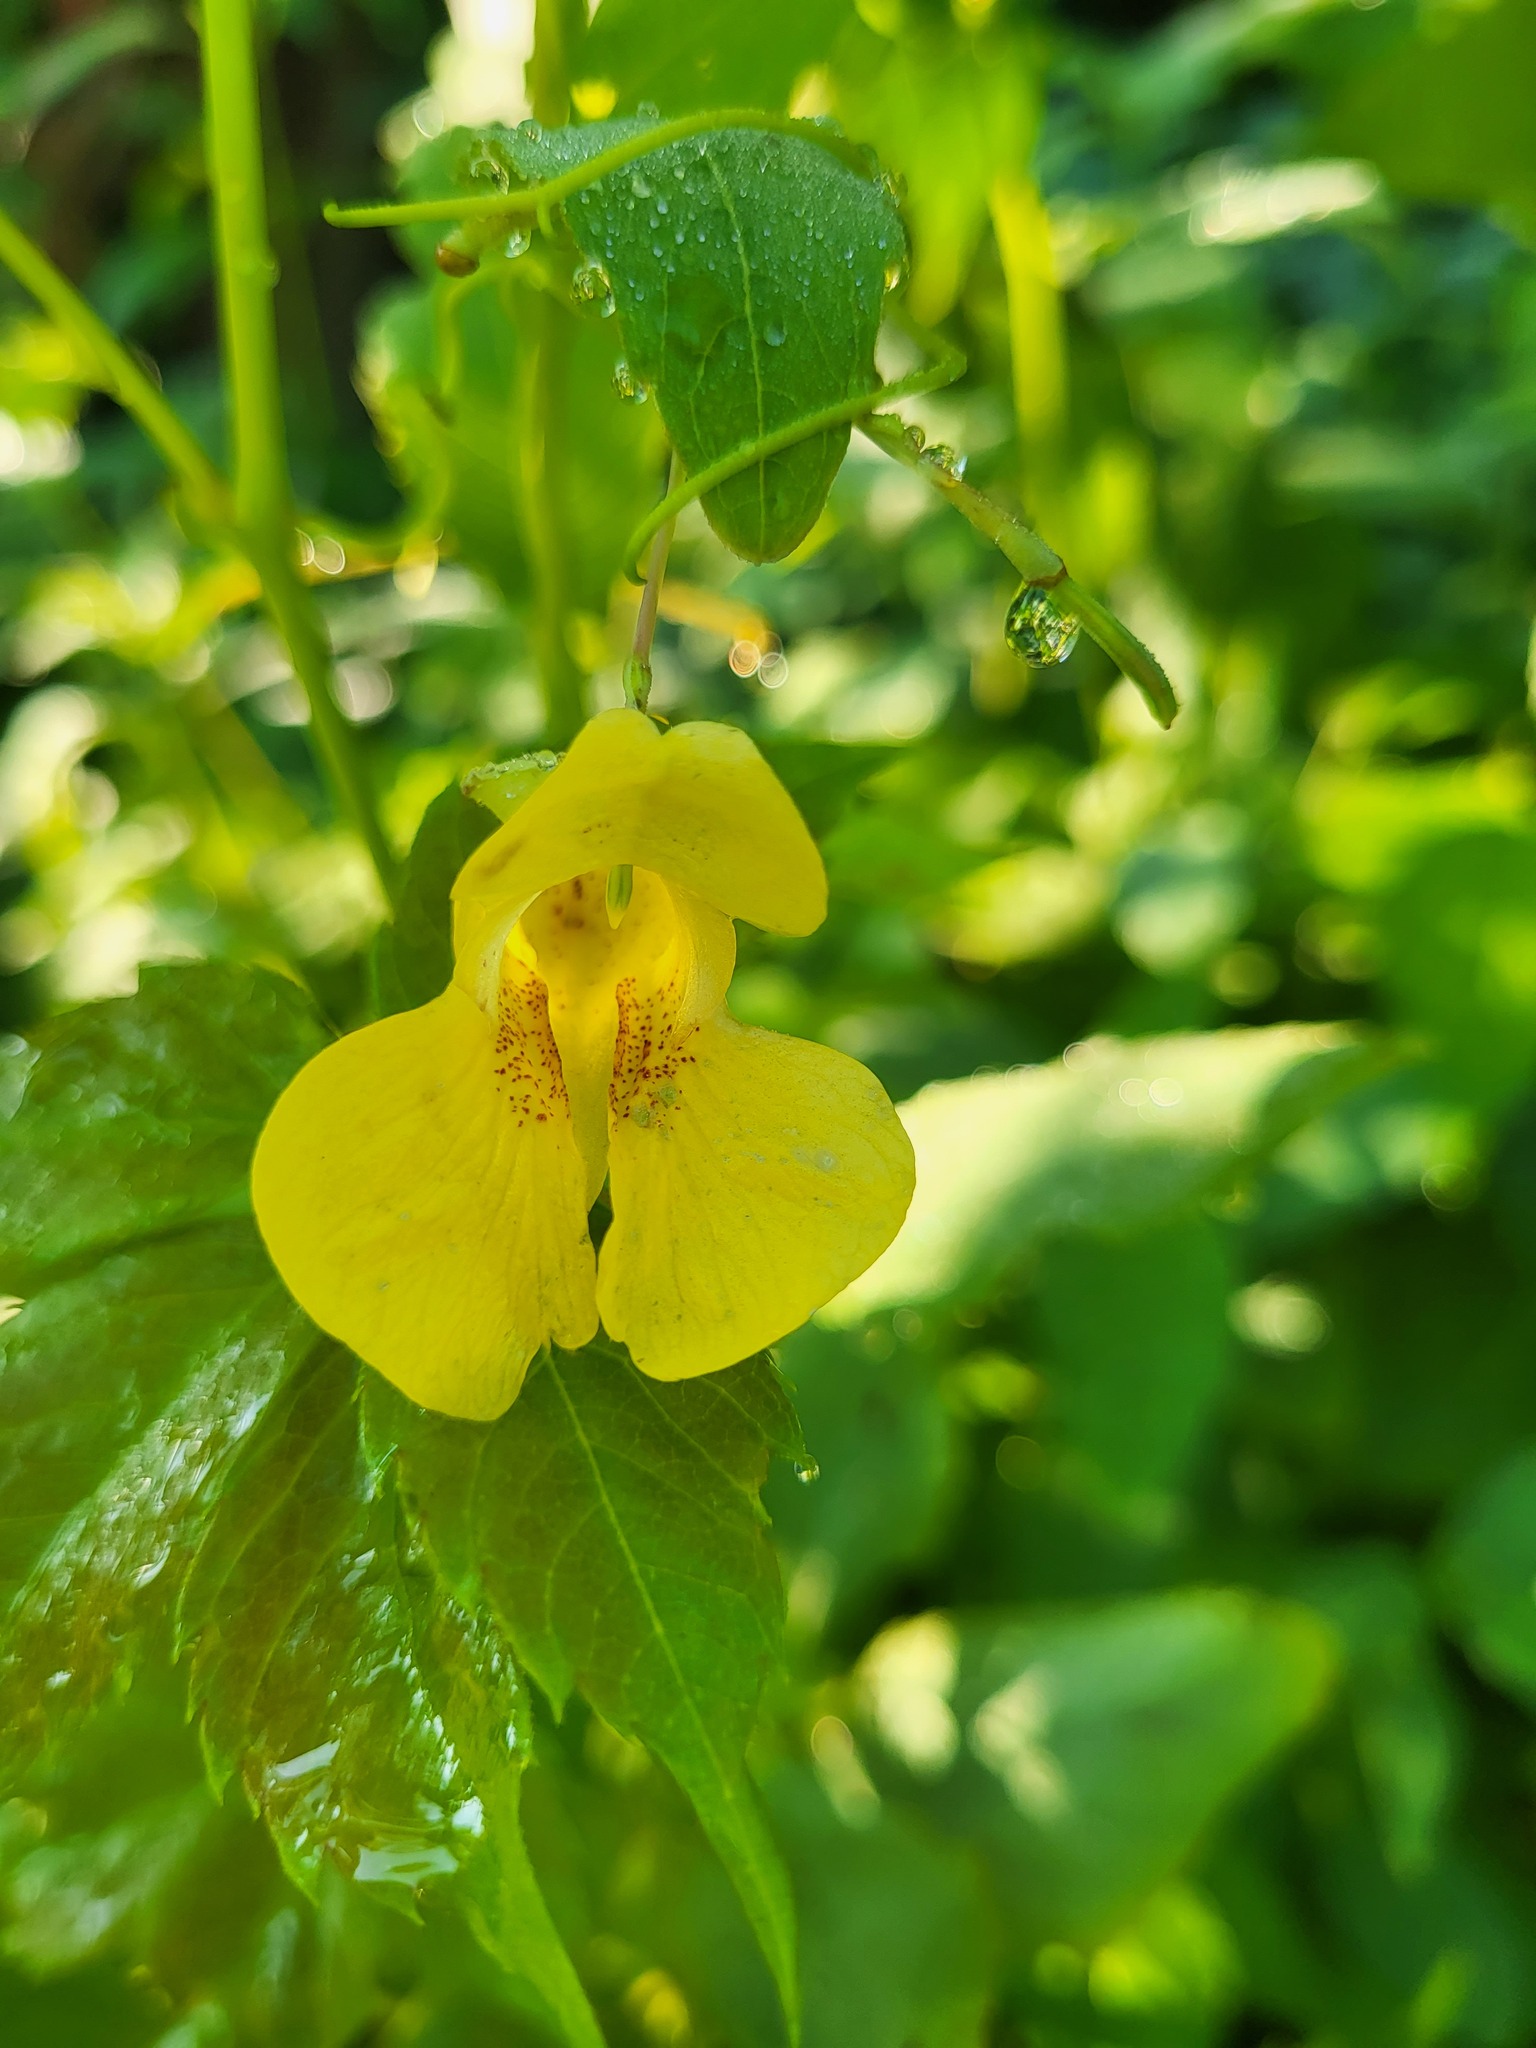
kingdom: Plantae
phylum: Tracheophyta
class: Magnoliopsida
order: Ericales
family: Balsaminaceae
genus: Impatiens
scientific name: Impatiens pallida
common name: Pale snapweed
